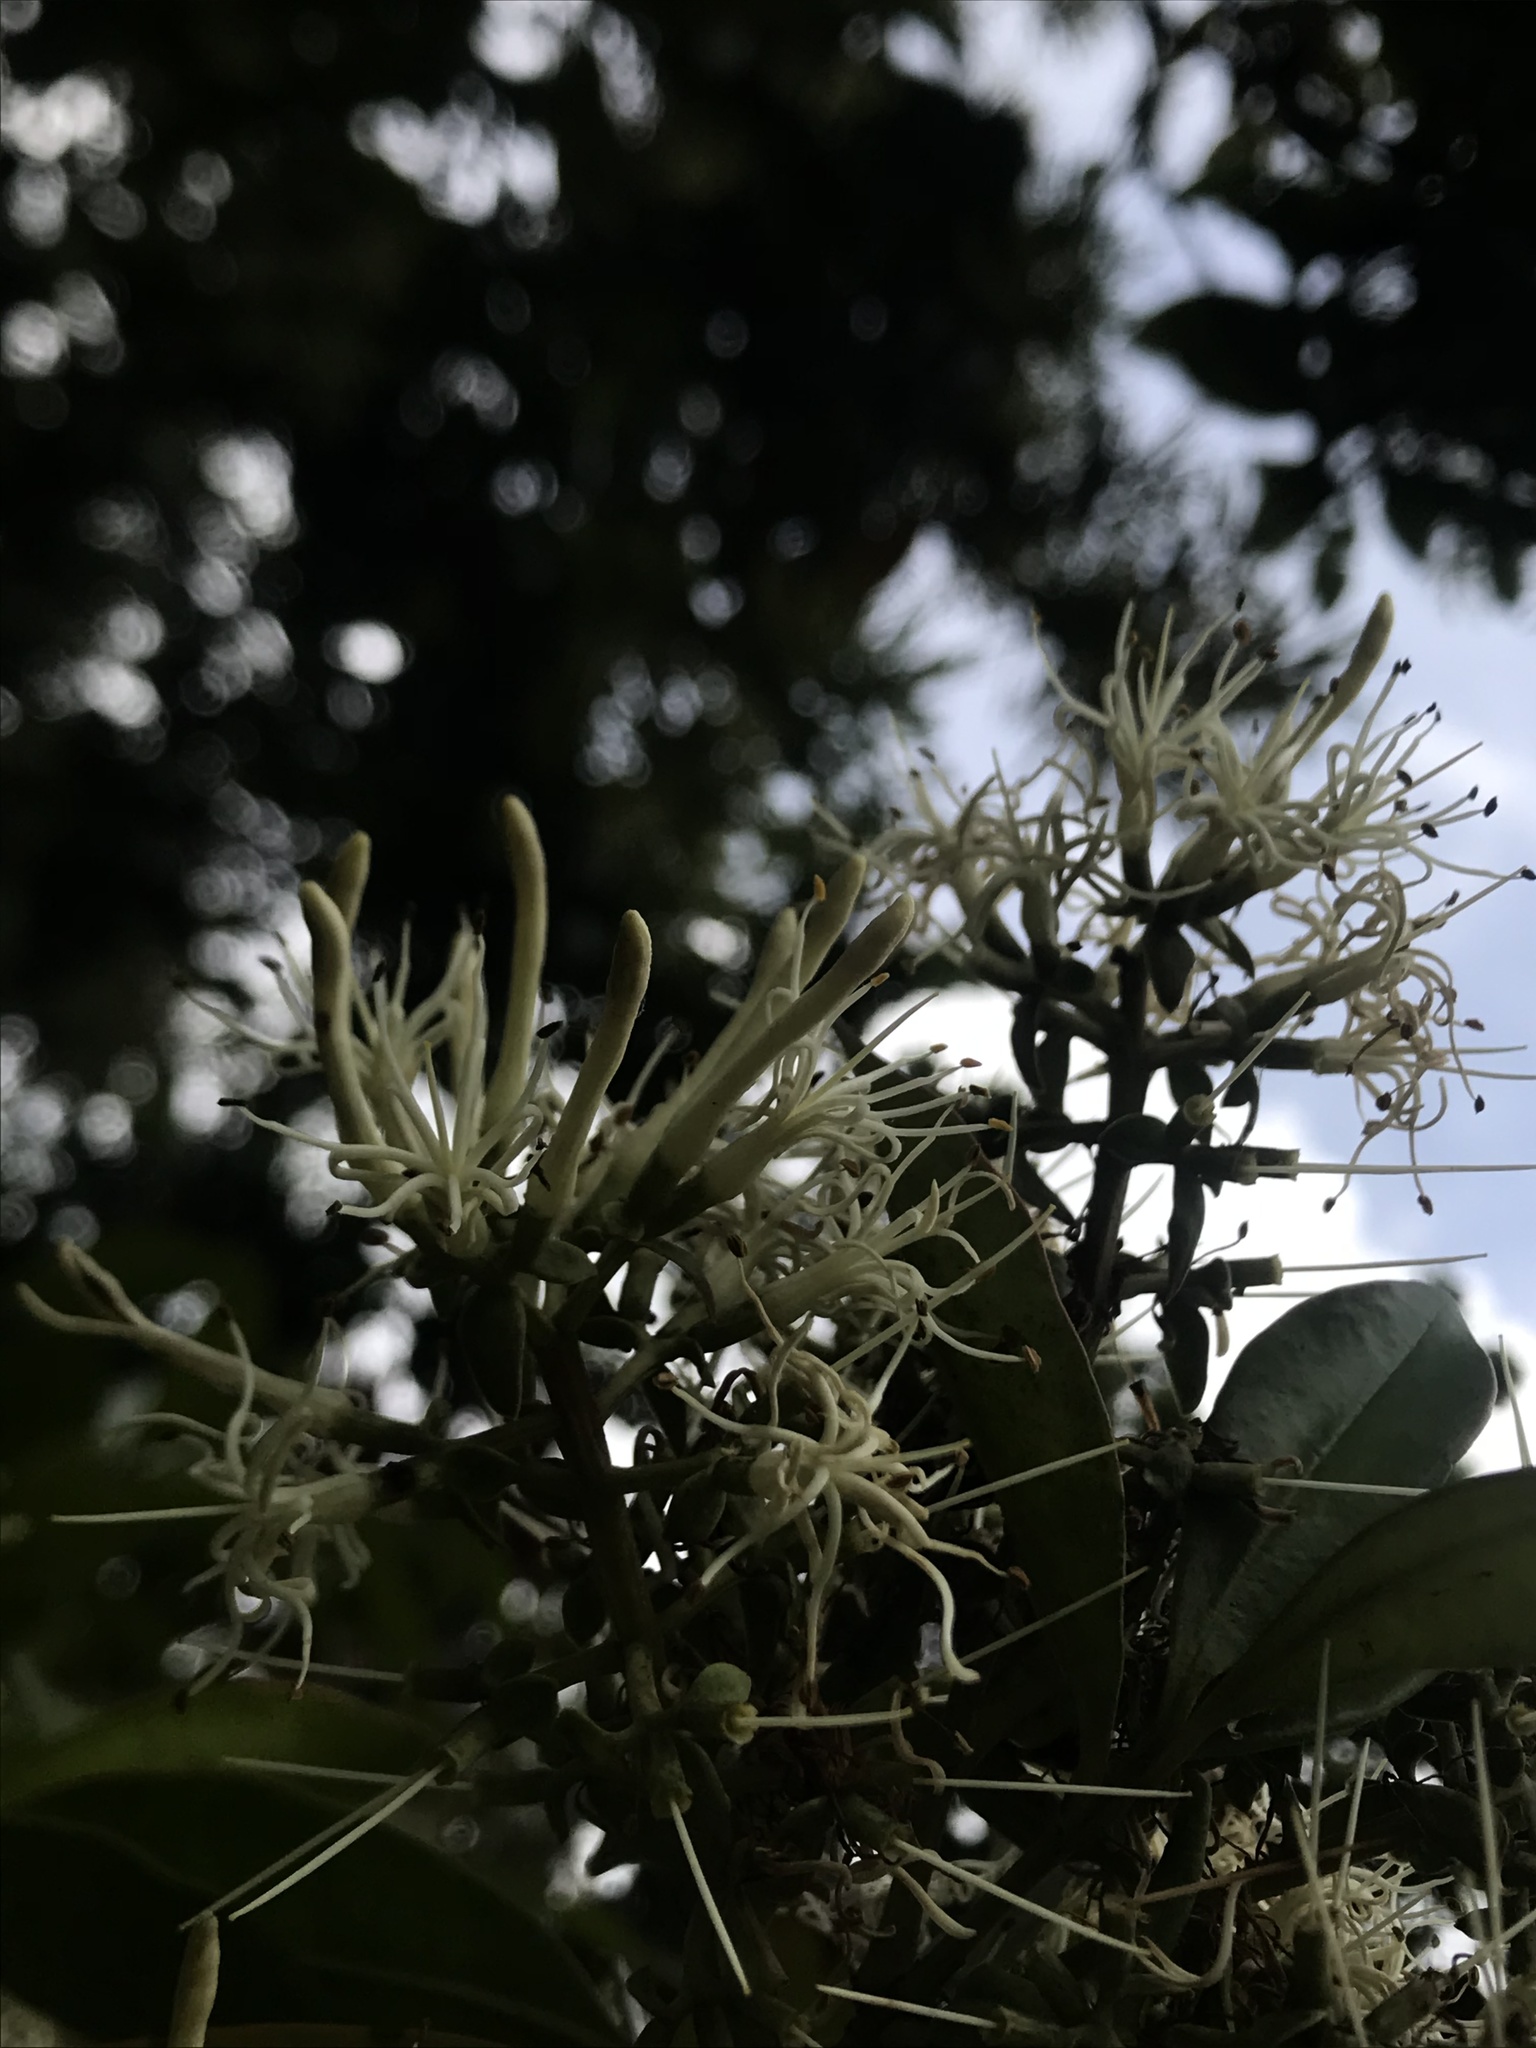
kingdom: Plantae
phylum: Tracheophyta
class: Magnoliopsida
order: Santalales
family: Loranthaceae
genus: Gaiadendron
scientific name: Gaiadendron punctatum
